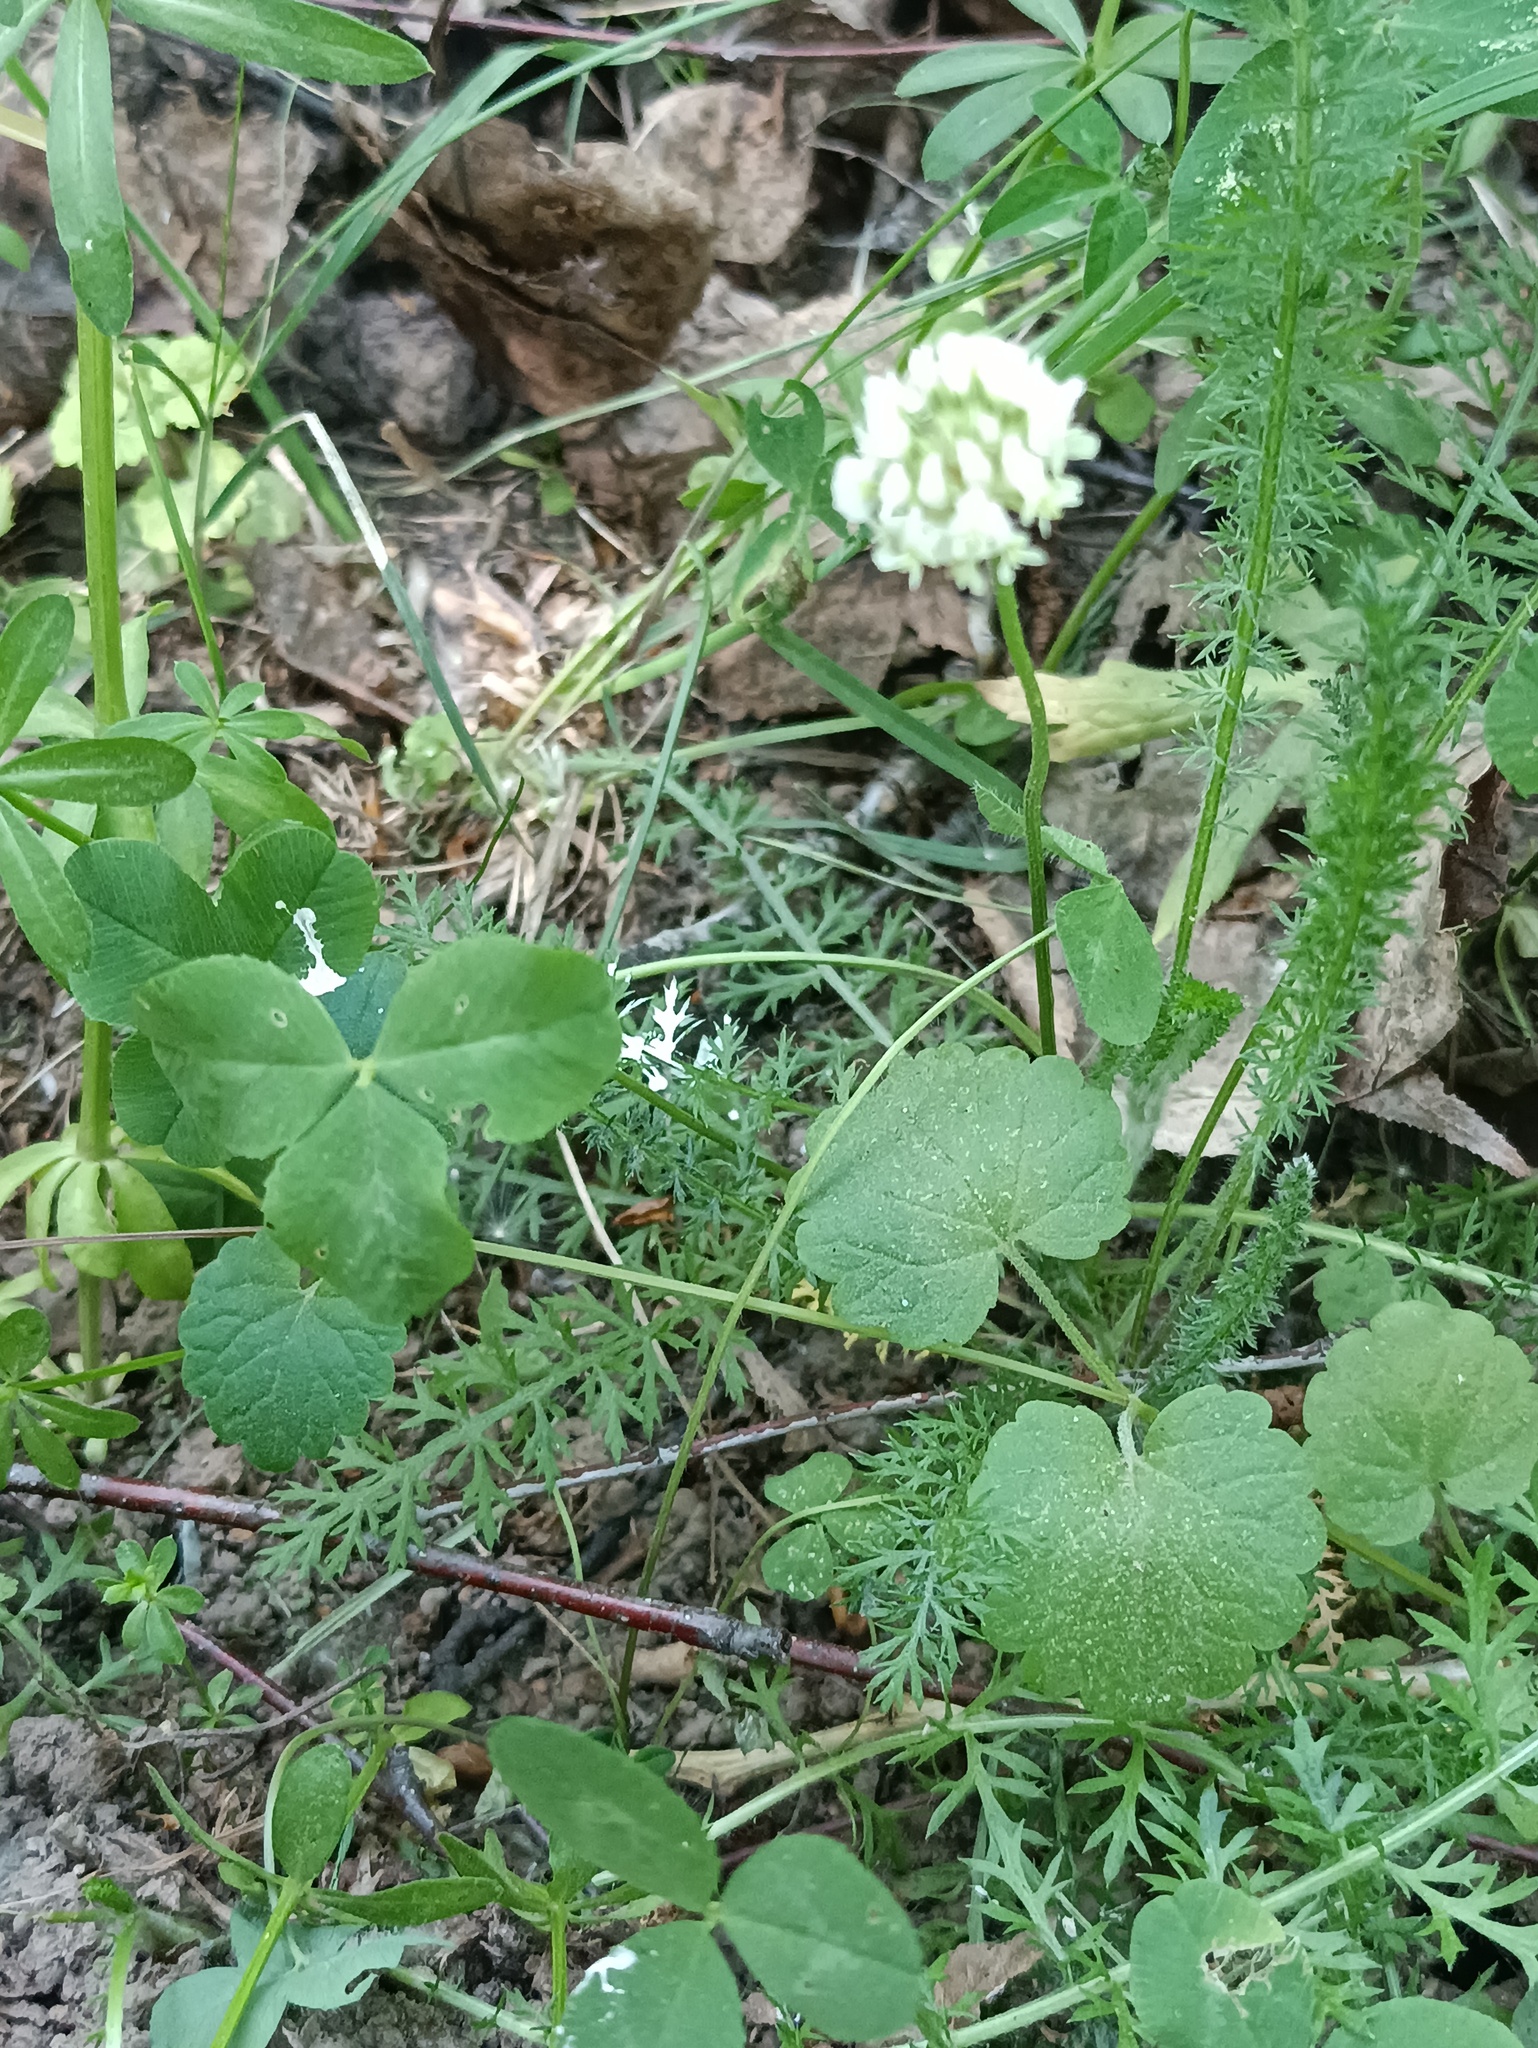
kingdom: Plantae
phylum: Tracheophyta
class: Magnoliopsida
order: Fabales
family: Fabaceae
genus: Trifolium
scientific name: Trifolium repens
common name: White clover
